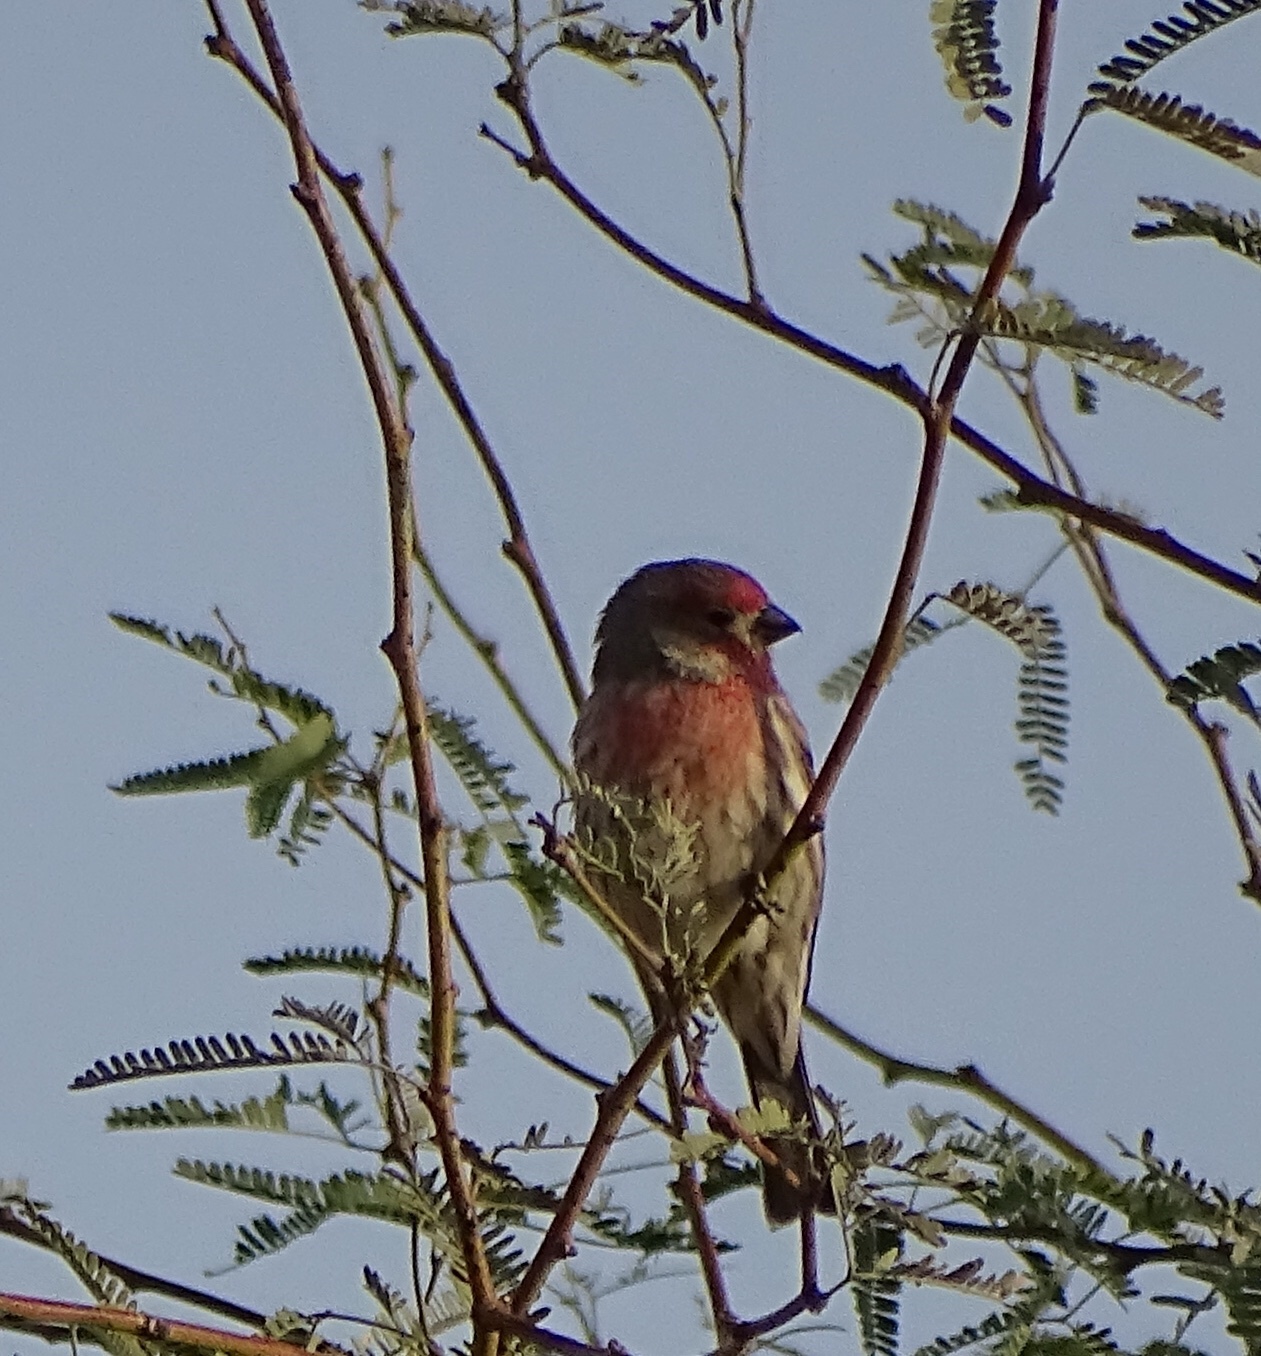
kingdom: Animalia
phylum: Chordata
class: Aves
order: Passeriformes
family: Fringillidae
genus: Haemorhous
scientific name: Haemorhous mexicanus
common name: House finch
